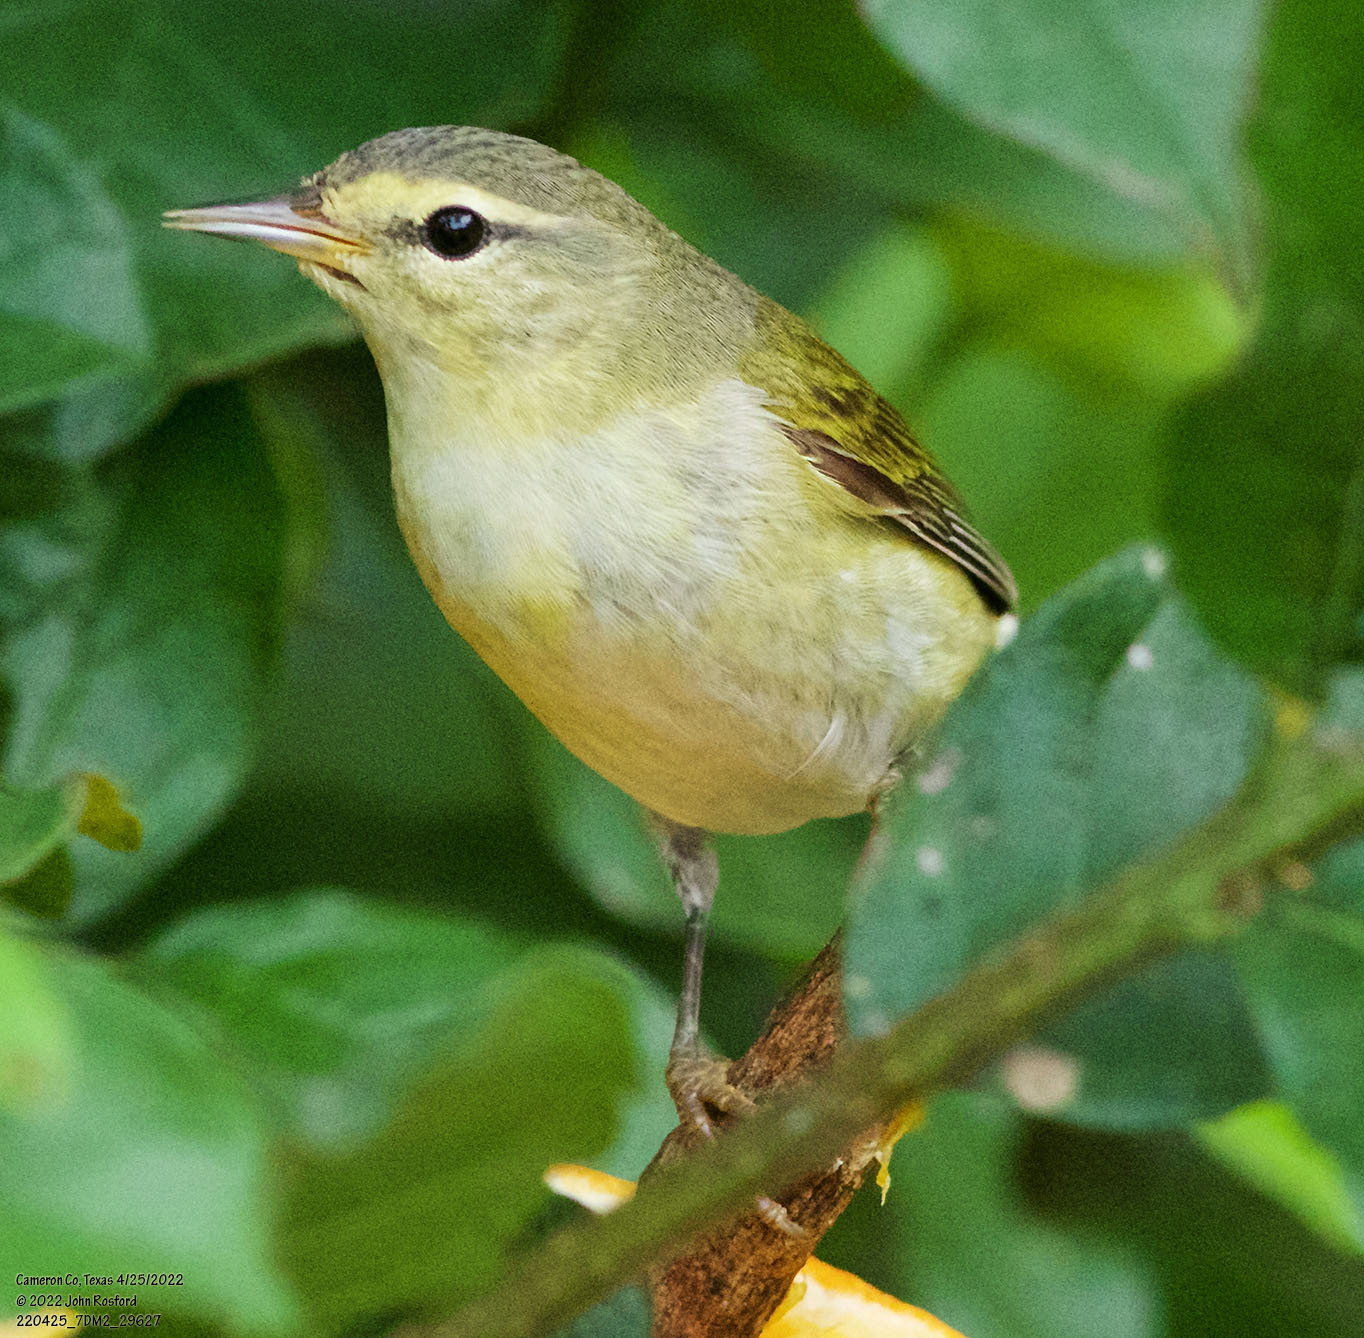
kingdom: Animalia
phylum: Chordata
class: Aves
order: Passeriformes
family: Parulidae
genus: Leiothlypis
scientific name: Leiothlypis peregrina
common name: Tennessee warbler
